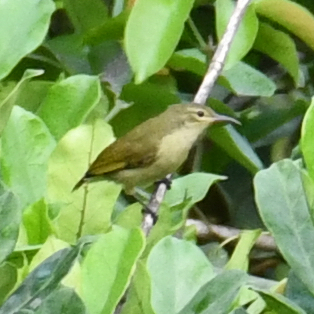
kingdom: Animalia
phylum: Chordata
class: Aves
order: Passeriformes
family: Nectariniidae
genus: Anthreptes
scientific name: Anthreptes seimundi
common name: Little green sunbird
